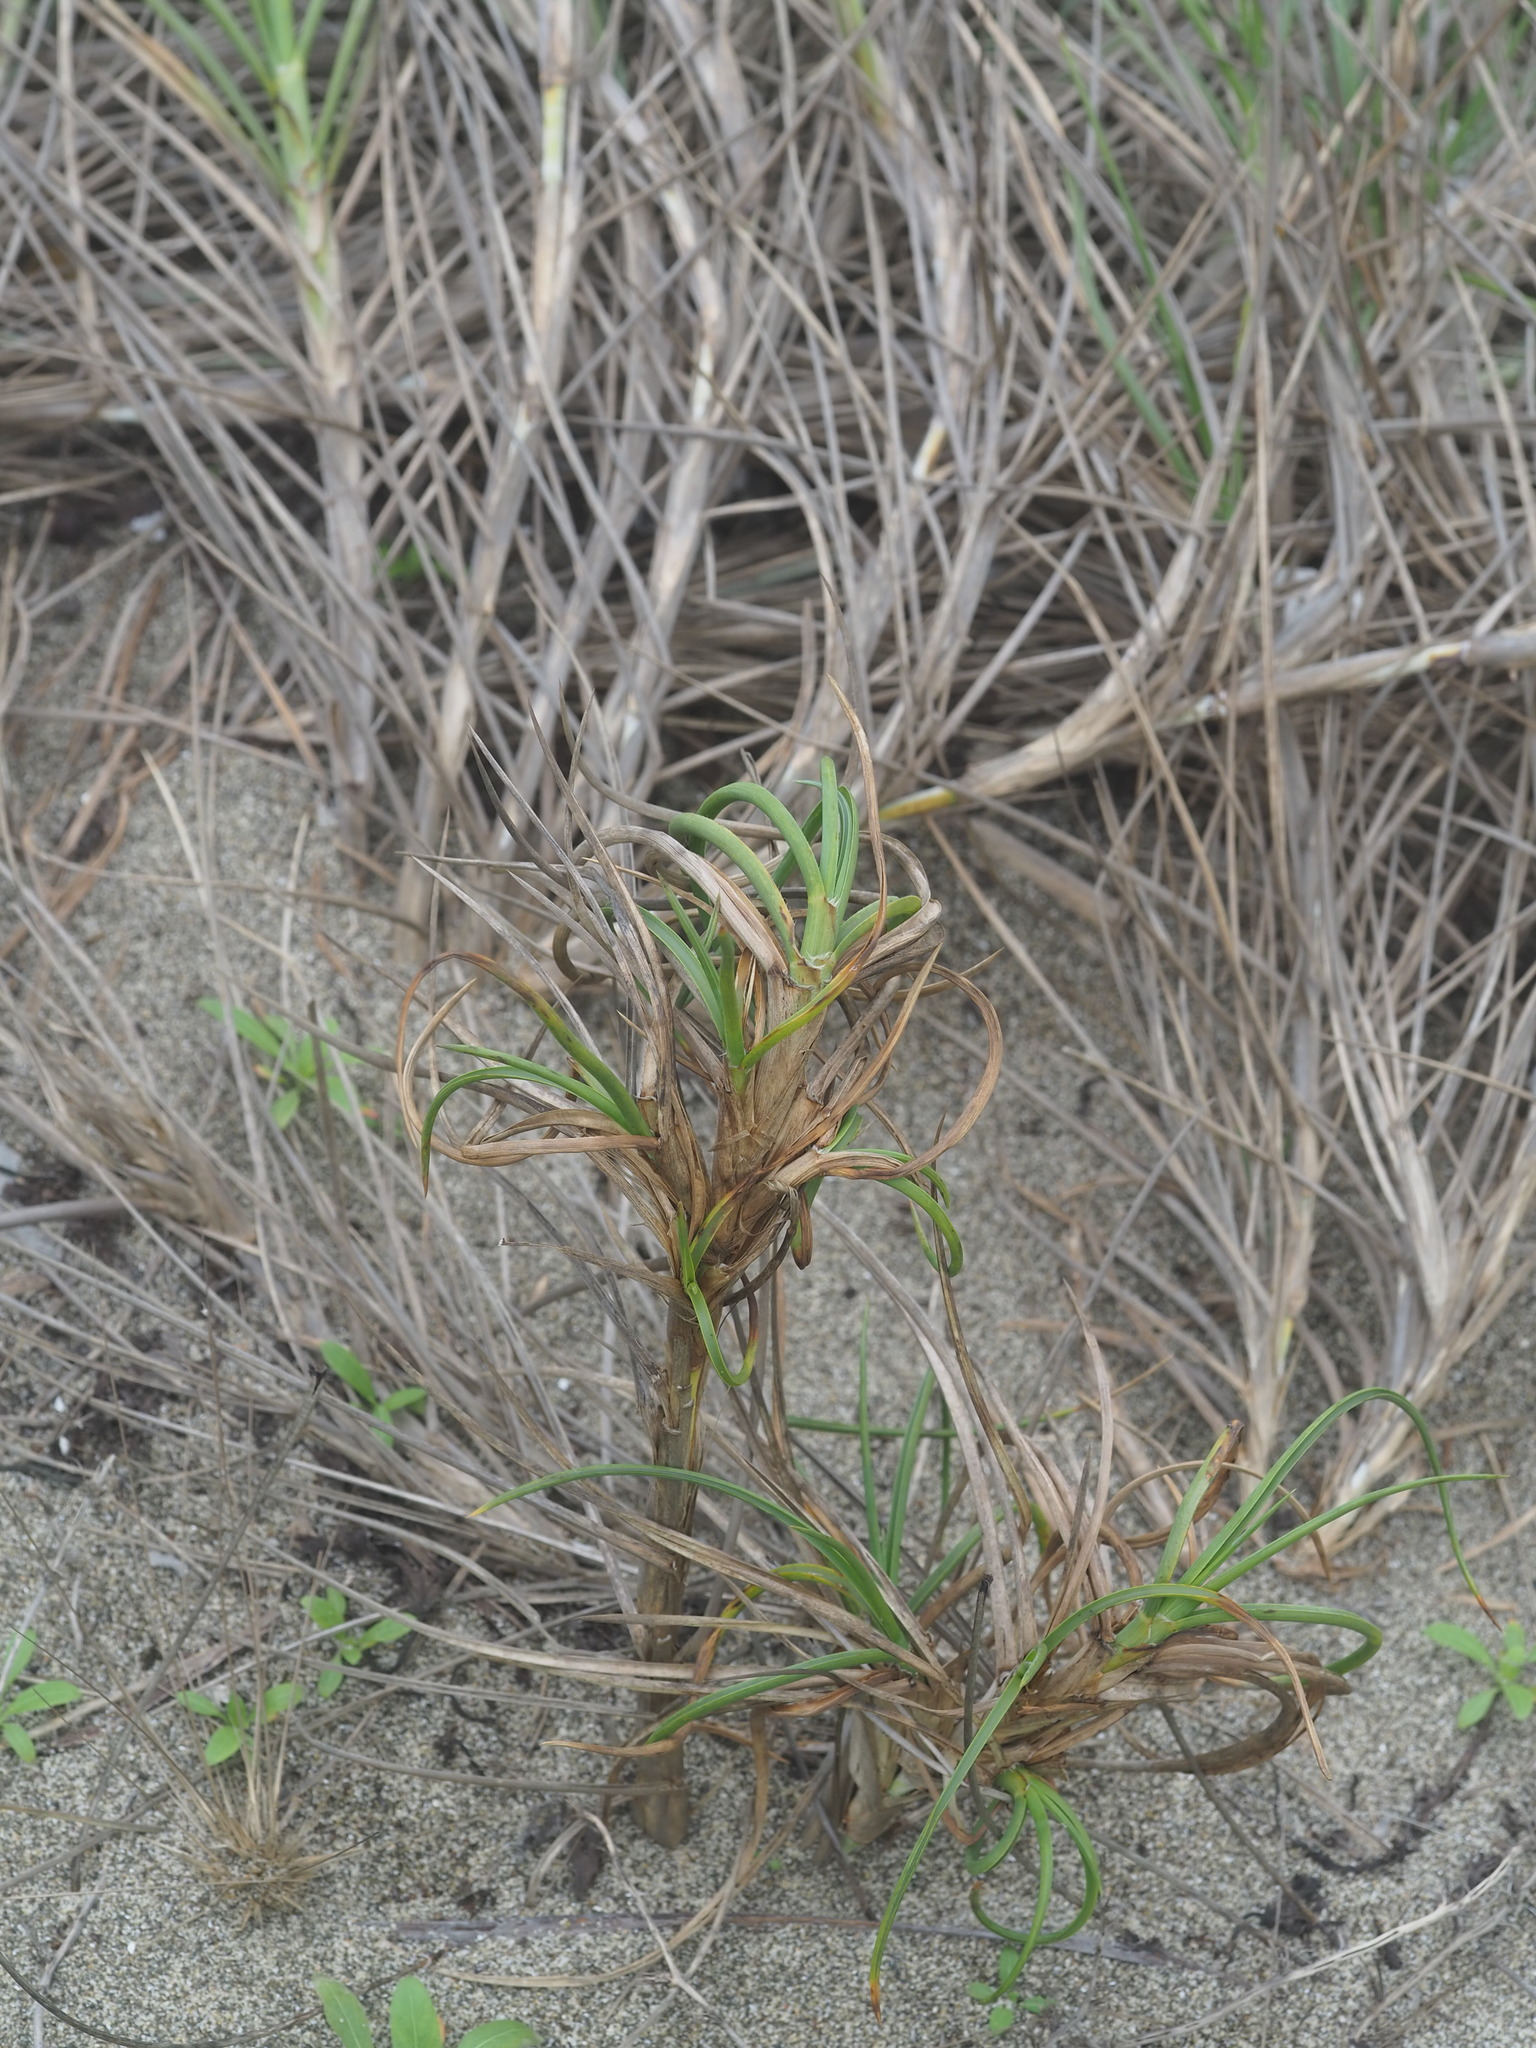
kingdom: Plantae
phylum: Tracheophyta
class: Liliopsida
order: Poales
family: Poaceae
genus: Spinifex
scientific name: Spinifex littoreus
